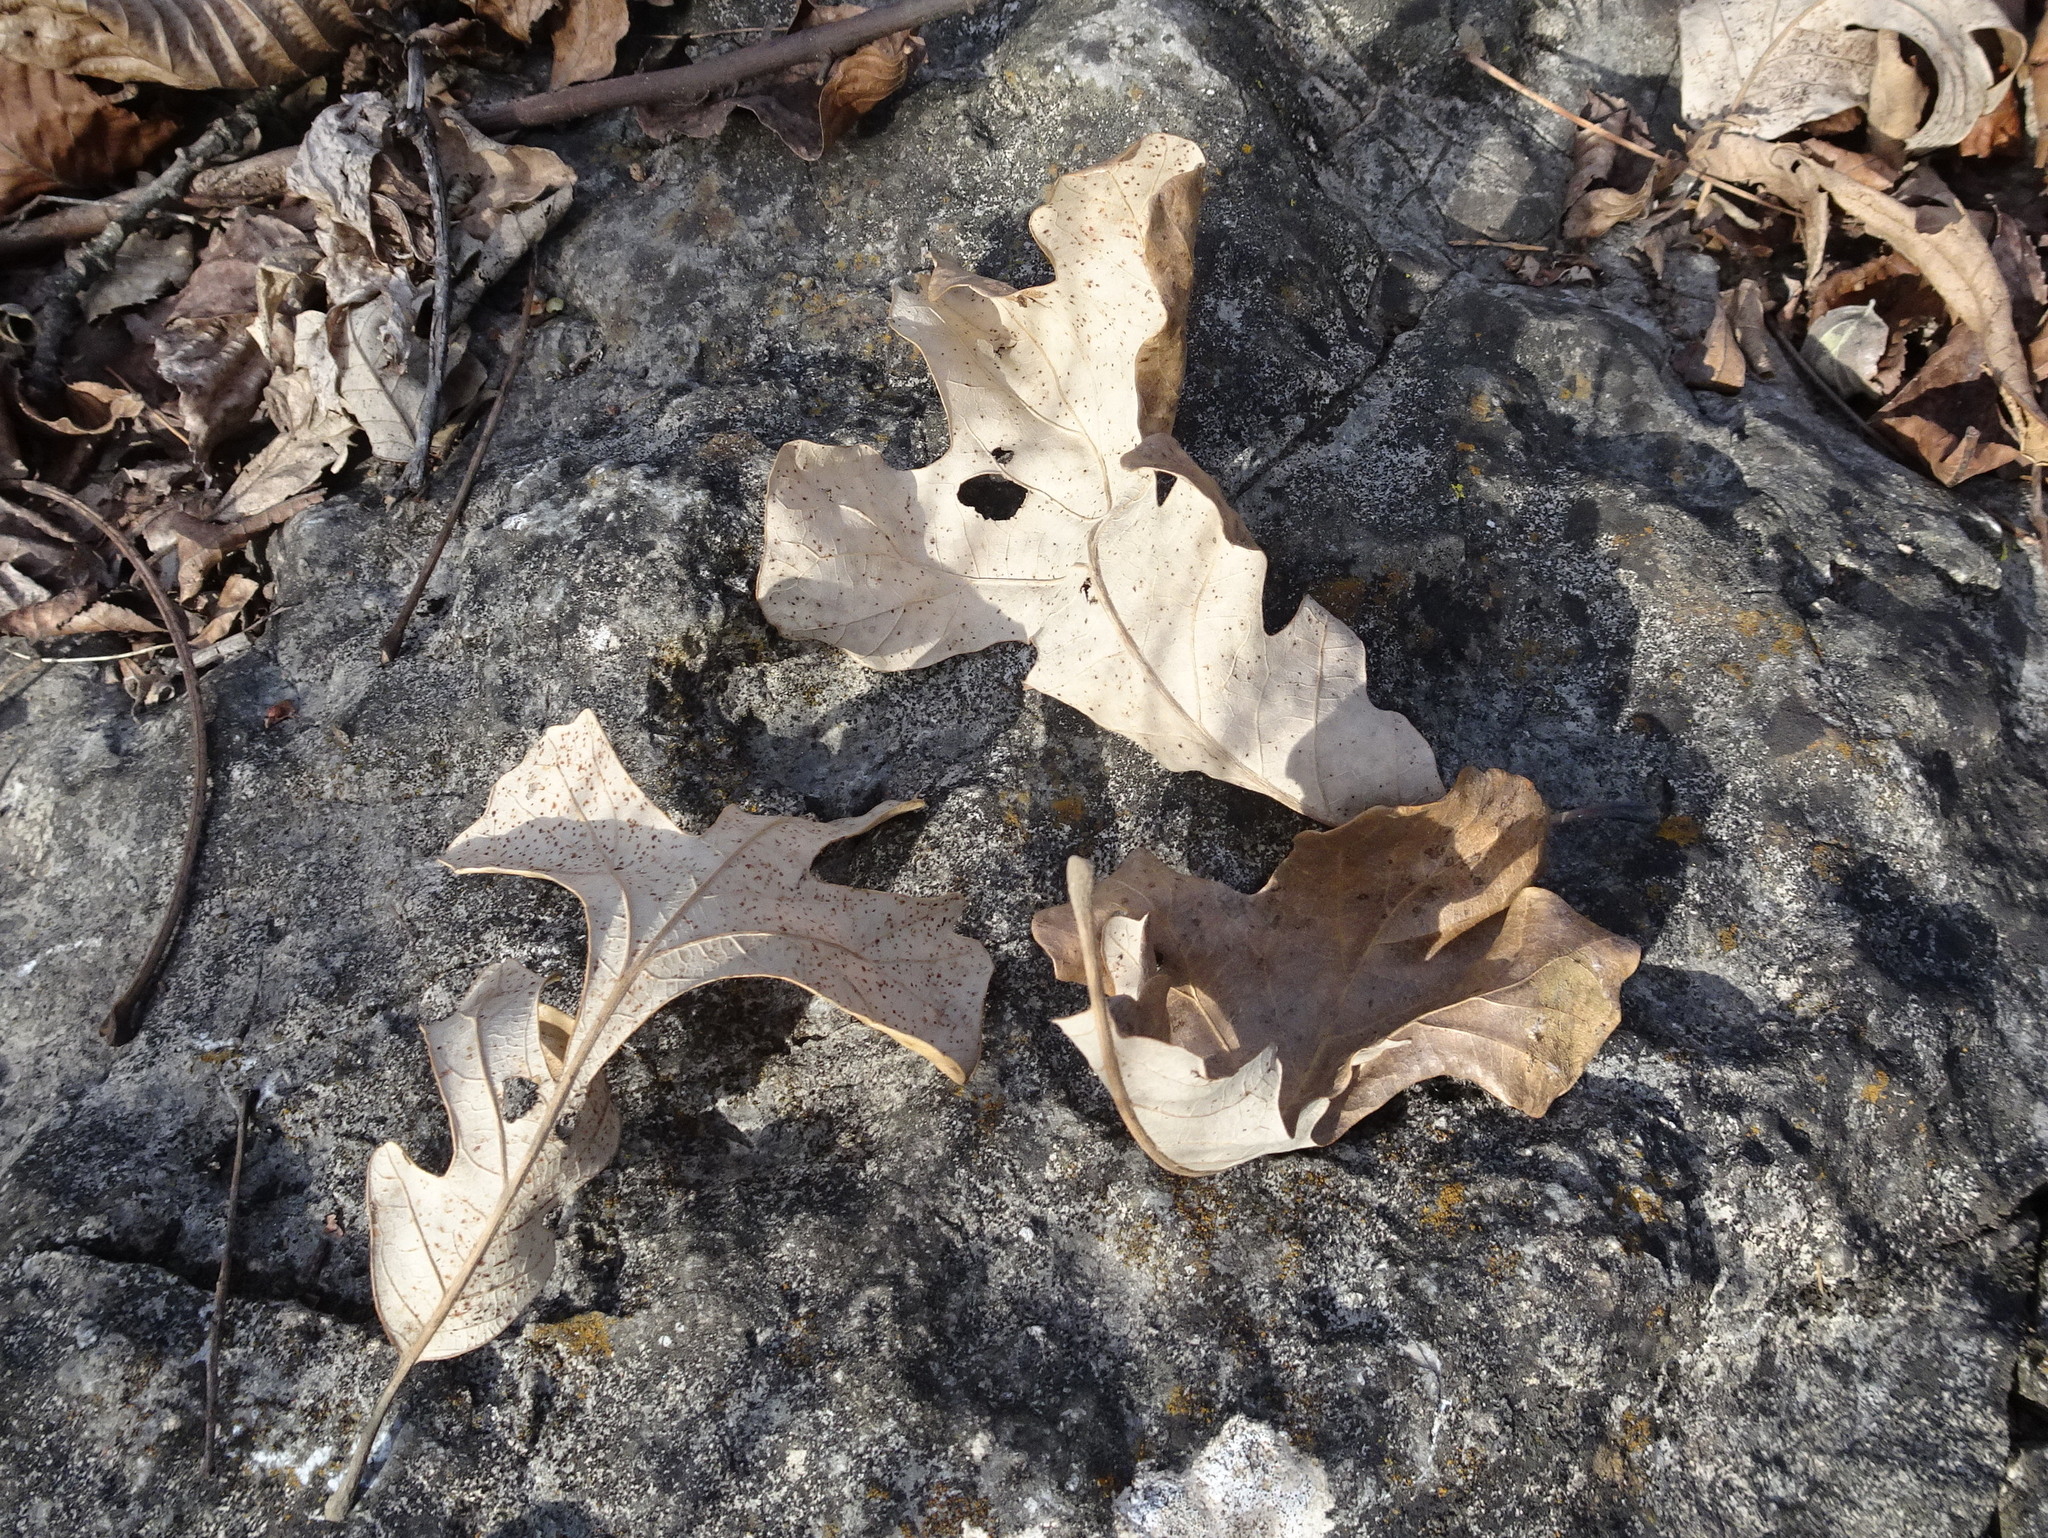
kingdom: Plantae
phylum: Tracheophyta
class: Magnoliopsida
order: Fagales
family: Fagaceae
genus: Quercus
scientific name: Quercus stellata
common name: Post oak
